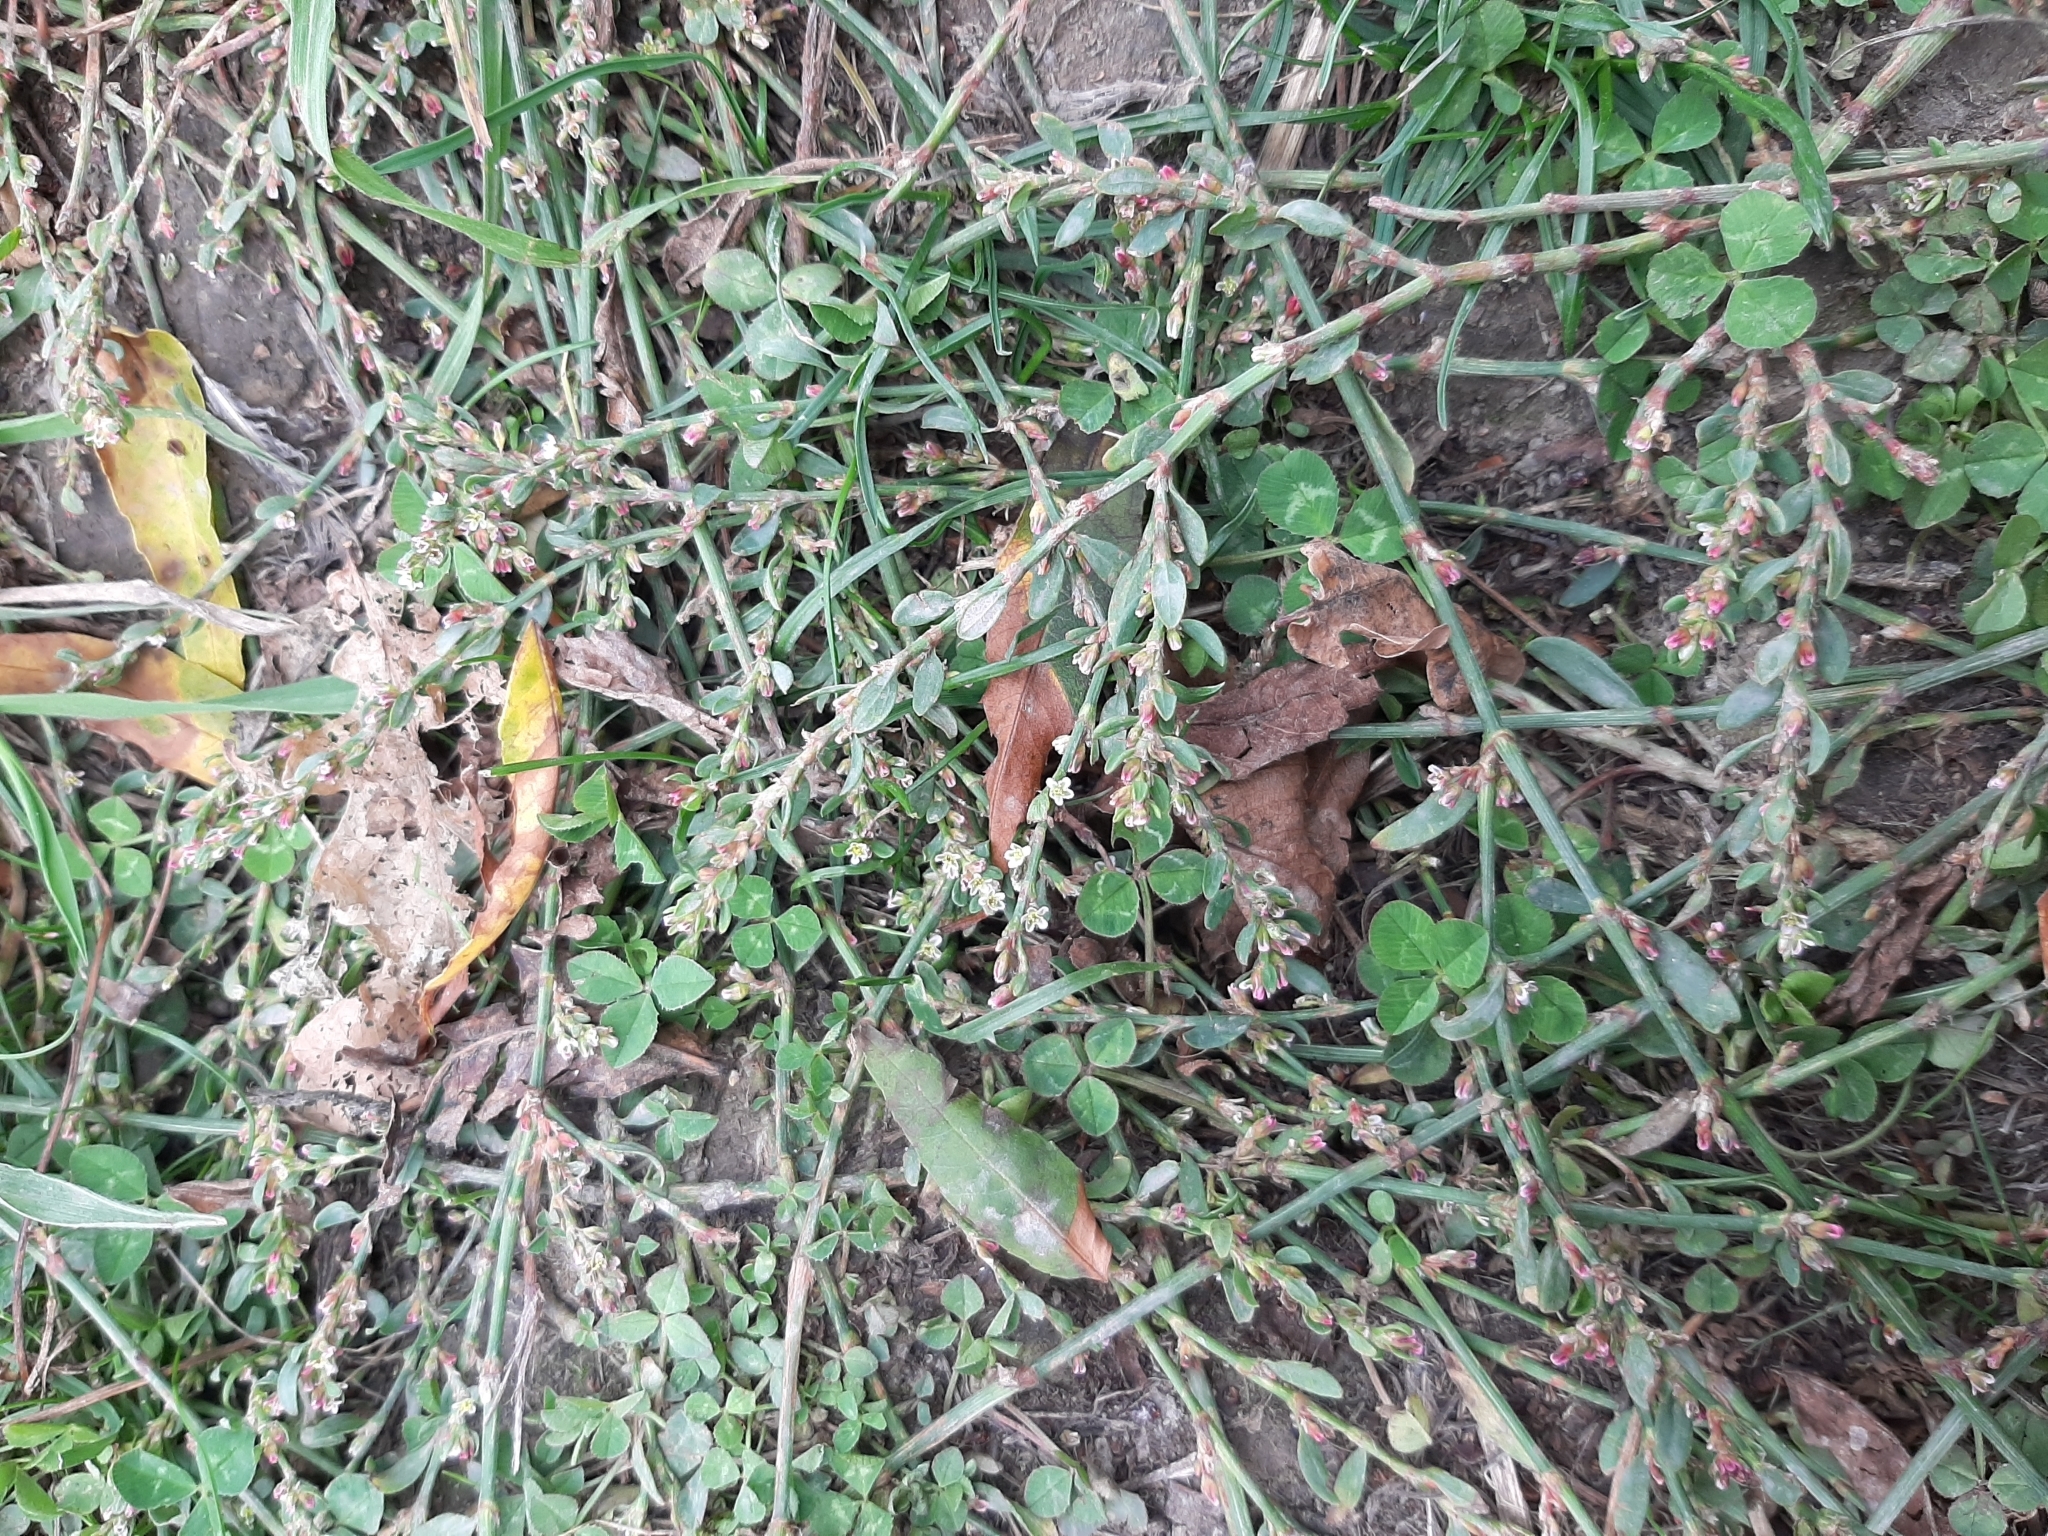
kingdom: Plantae
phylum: Tracheophyta
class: Magnoliopsida
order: Caryophyllales
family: Polygonaceae
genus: Polygonum
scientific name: Polygonum aviculare
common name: Prostrate knotweed
